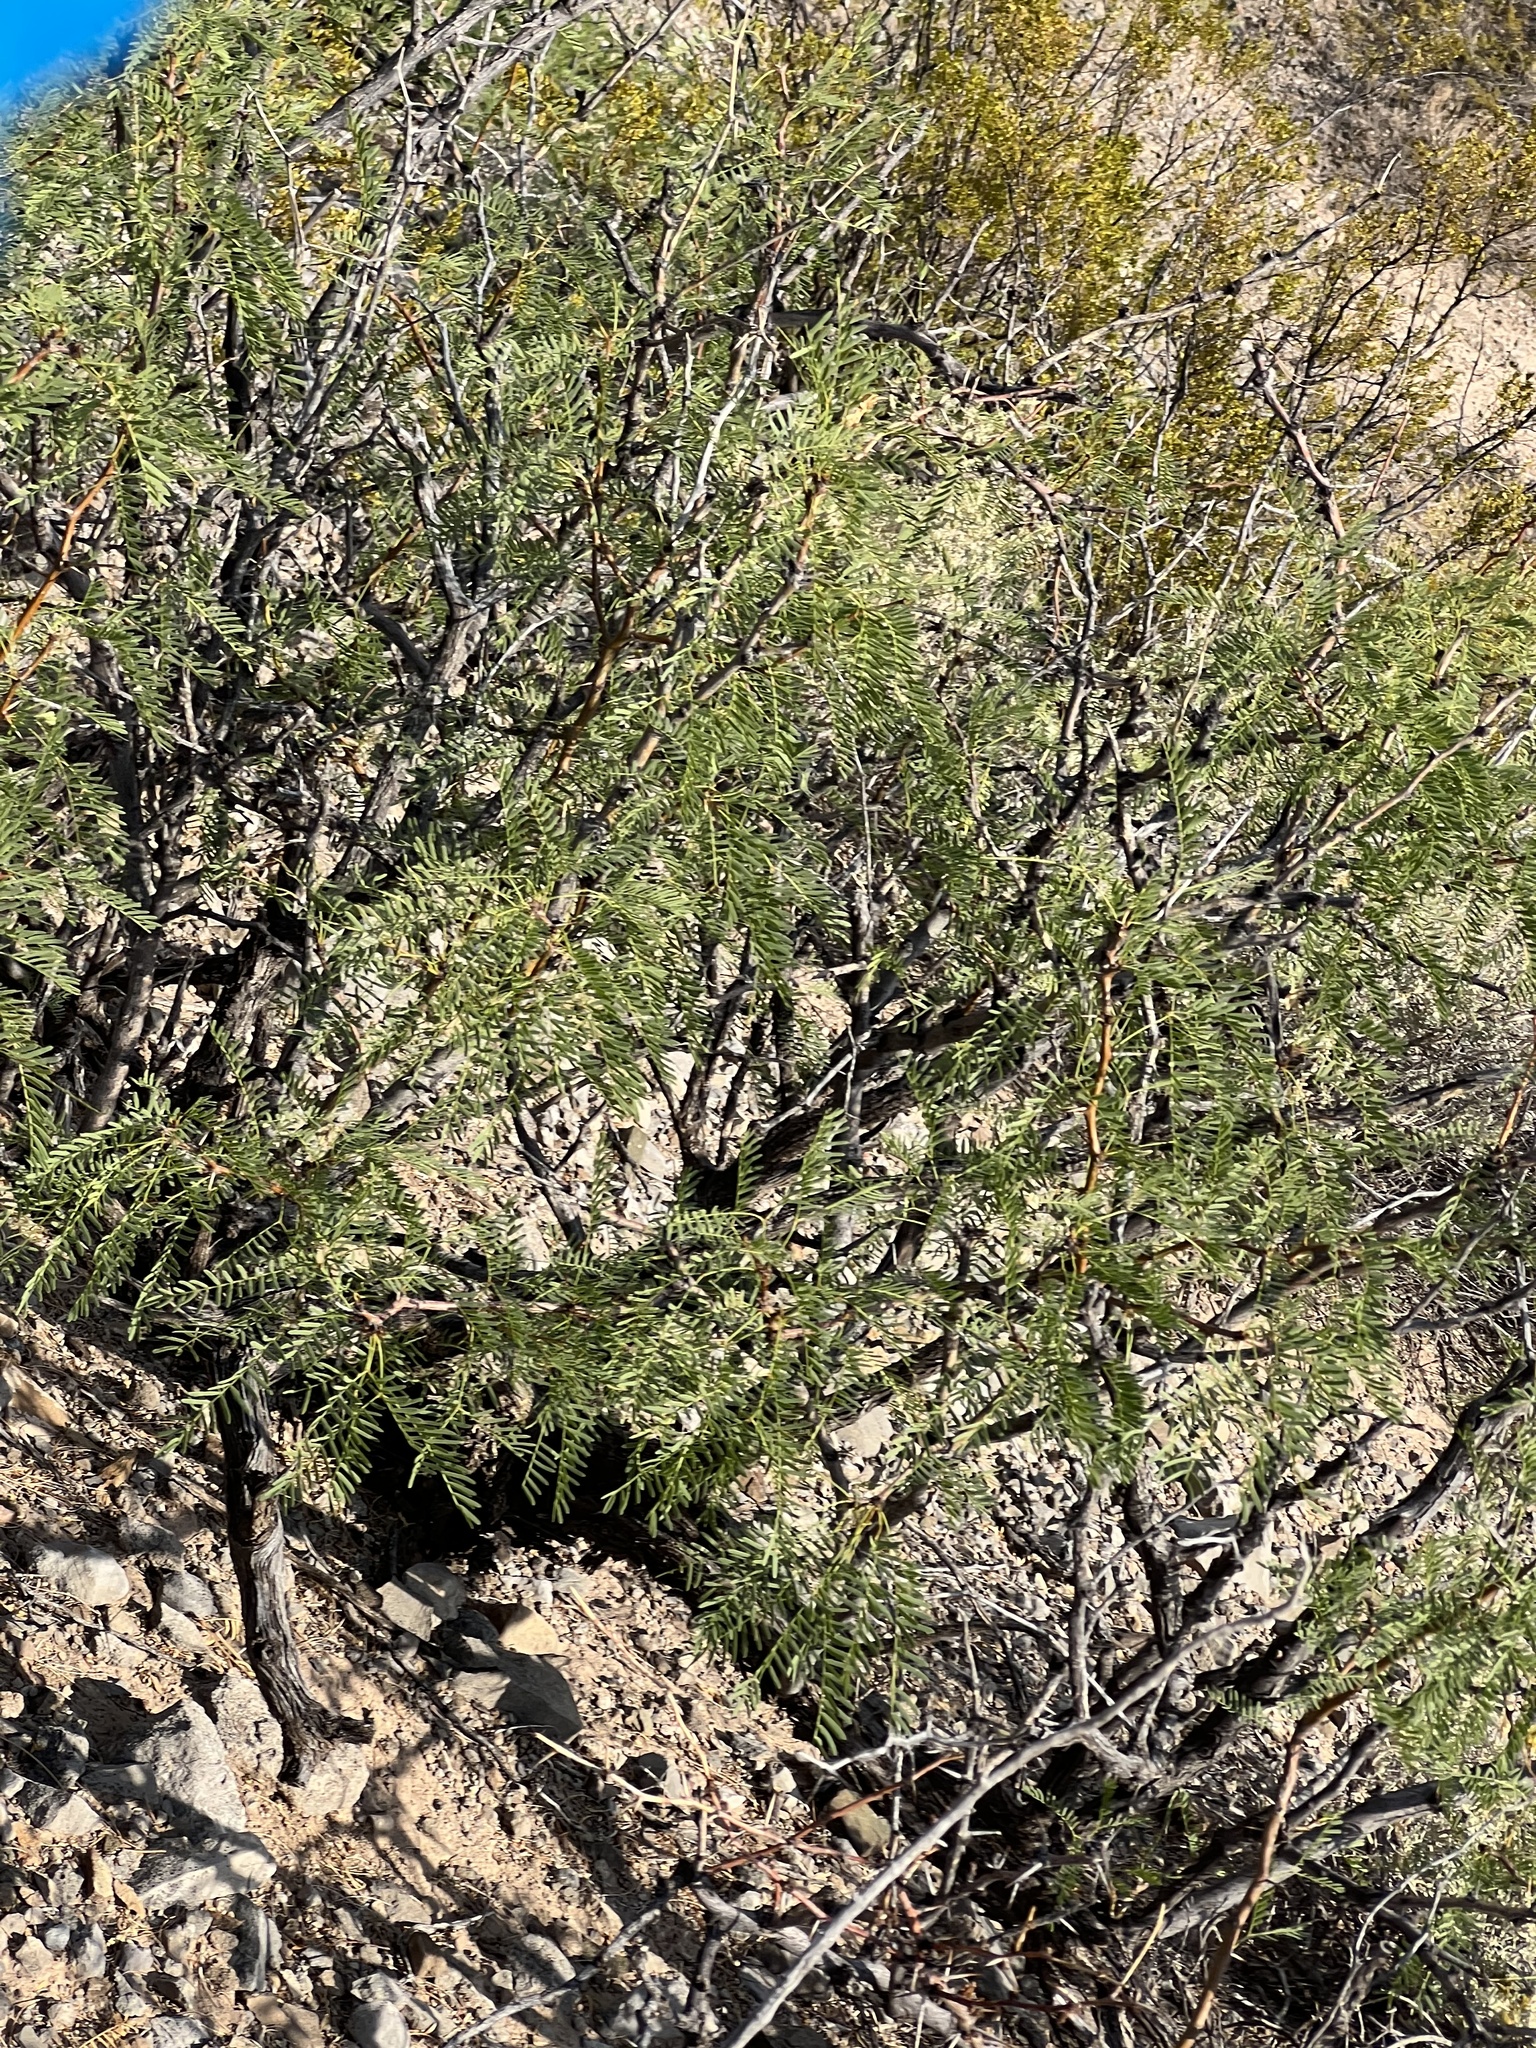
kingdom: Plantae
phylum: Tracheophyta
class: Magnoliopsida
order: Fabales
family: Fabaceae
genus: Prosopis
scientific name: Prosopis glandulosa
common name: Honey mesquite
